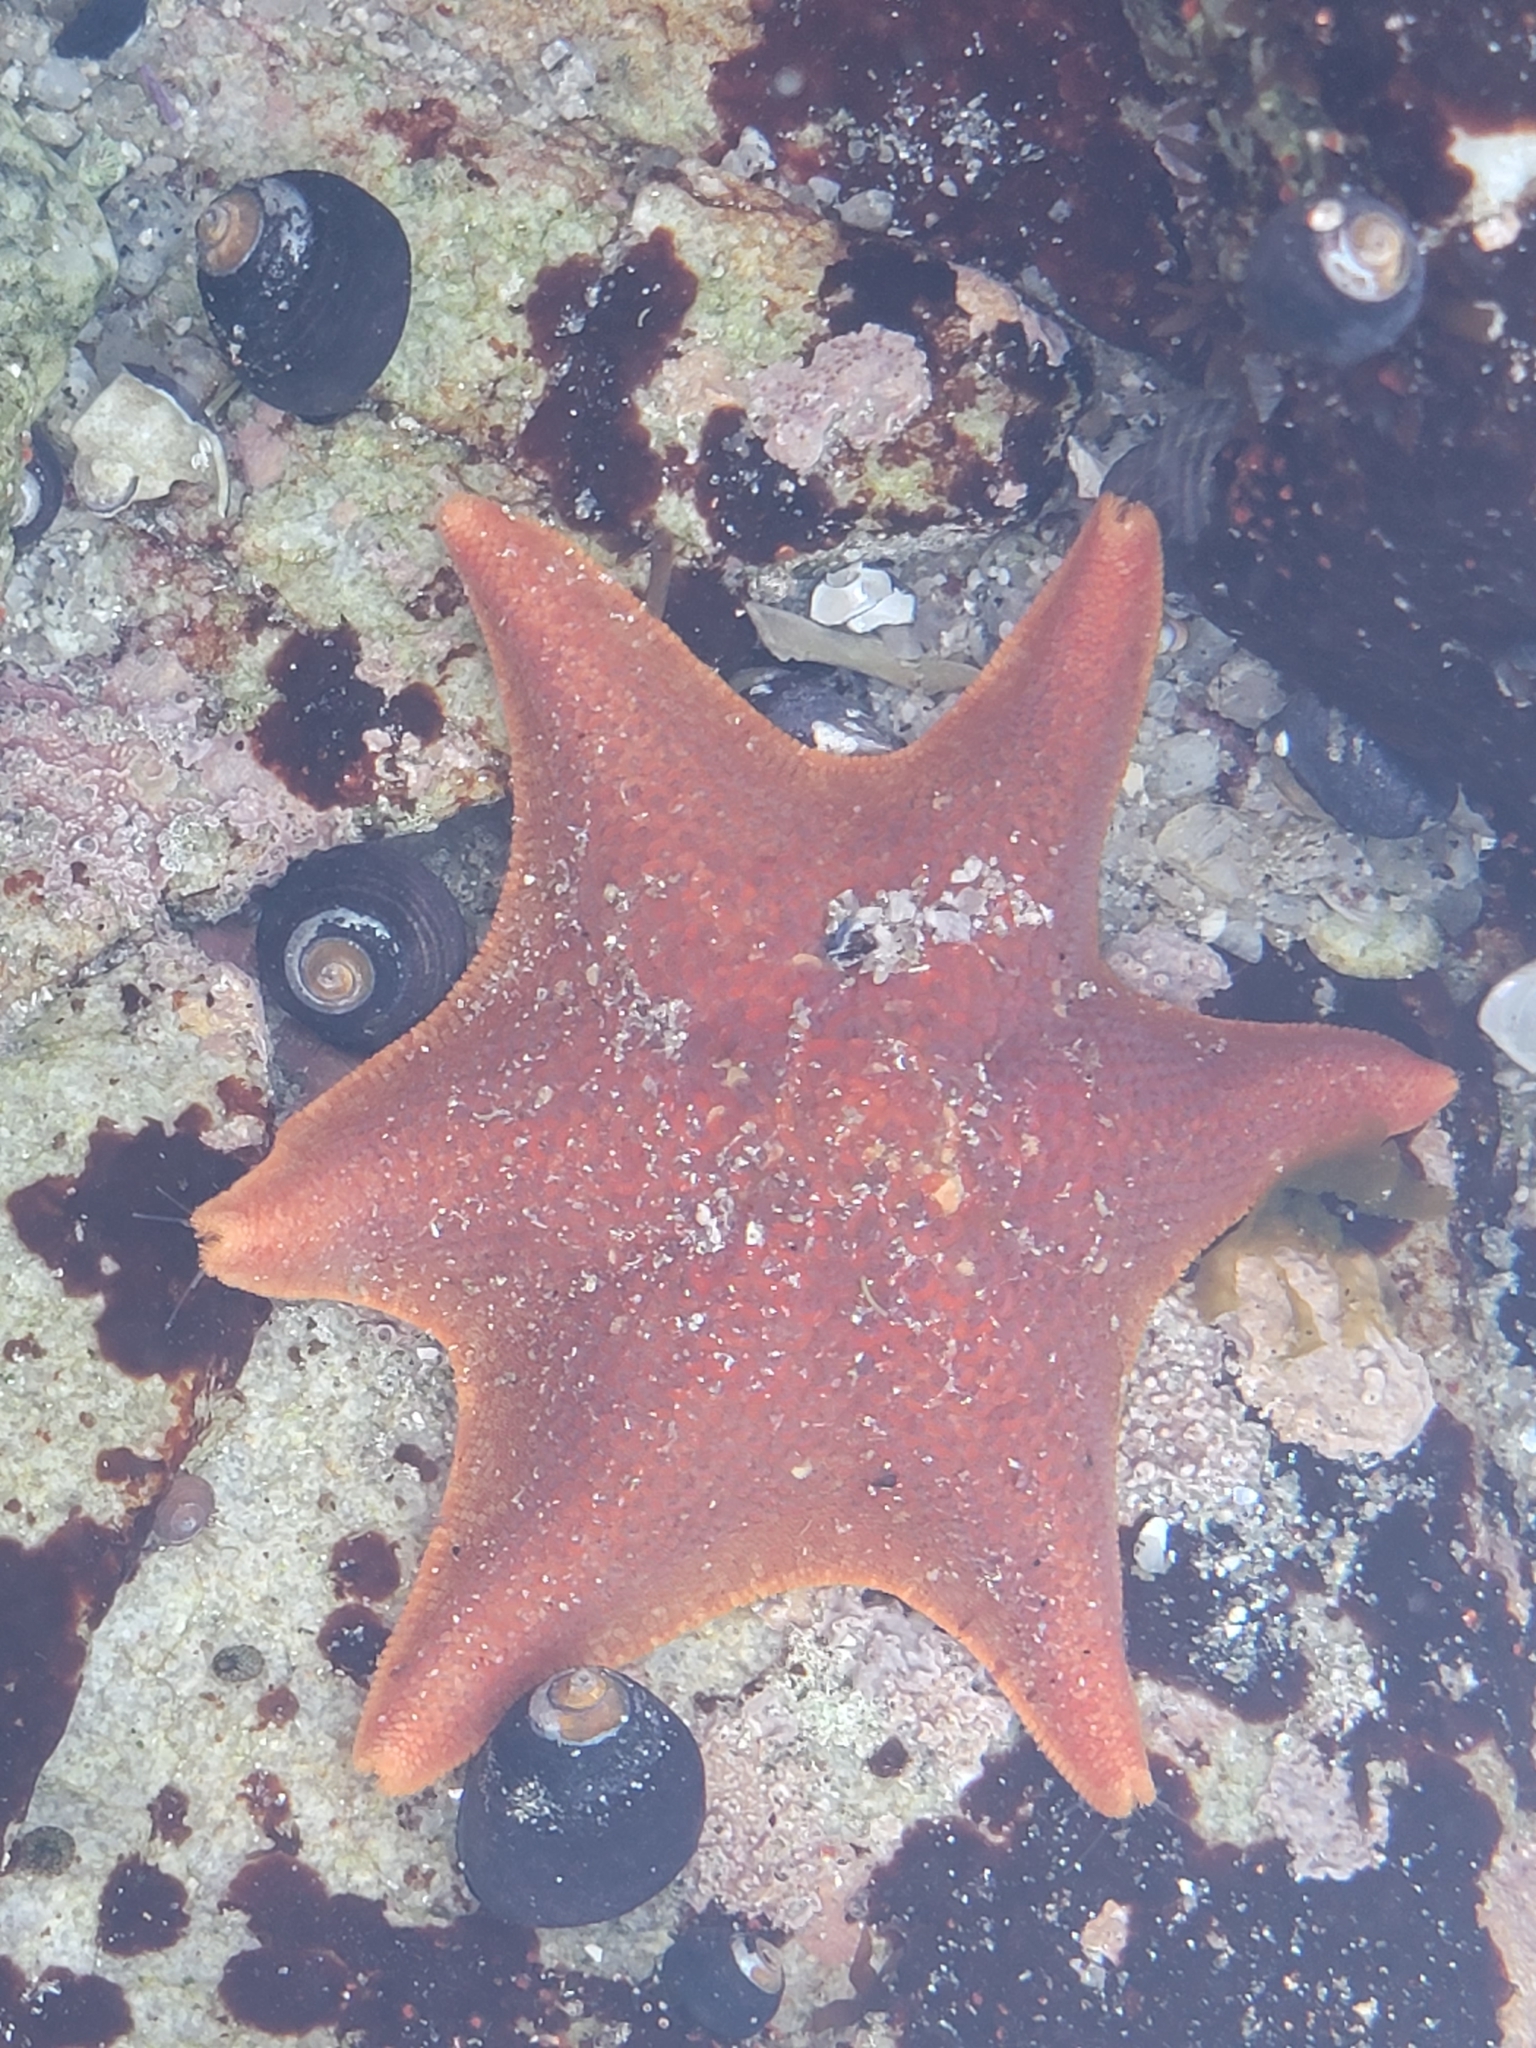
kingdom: Animalia
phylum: Echinodermata
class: Asteroidea
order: Valvatida
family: Asterinidae
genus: Patiria
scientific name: Patiria miniata
